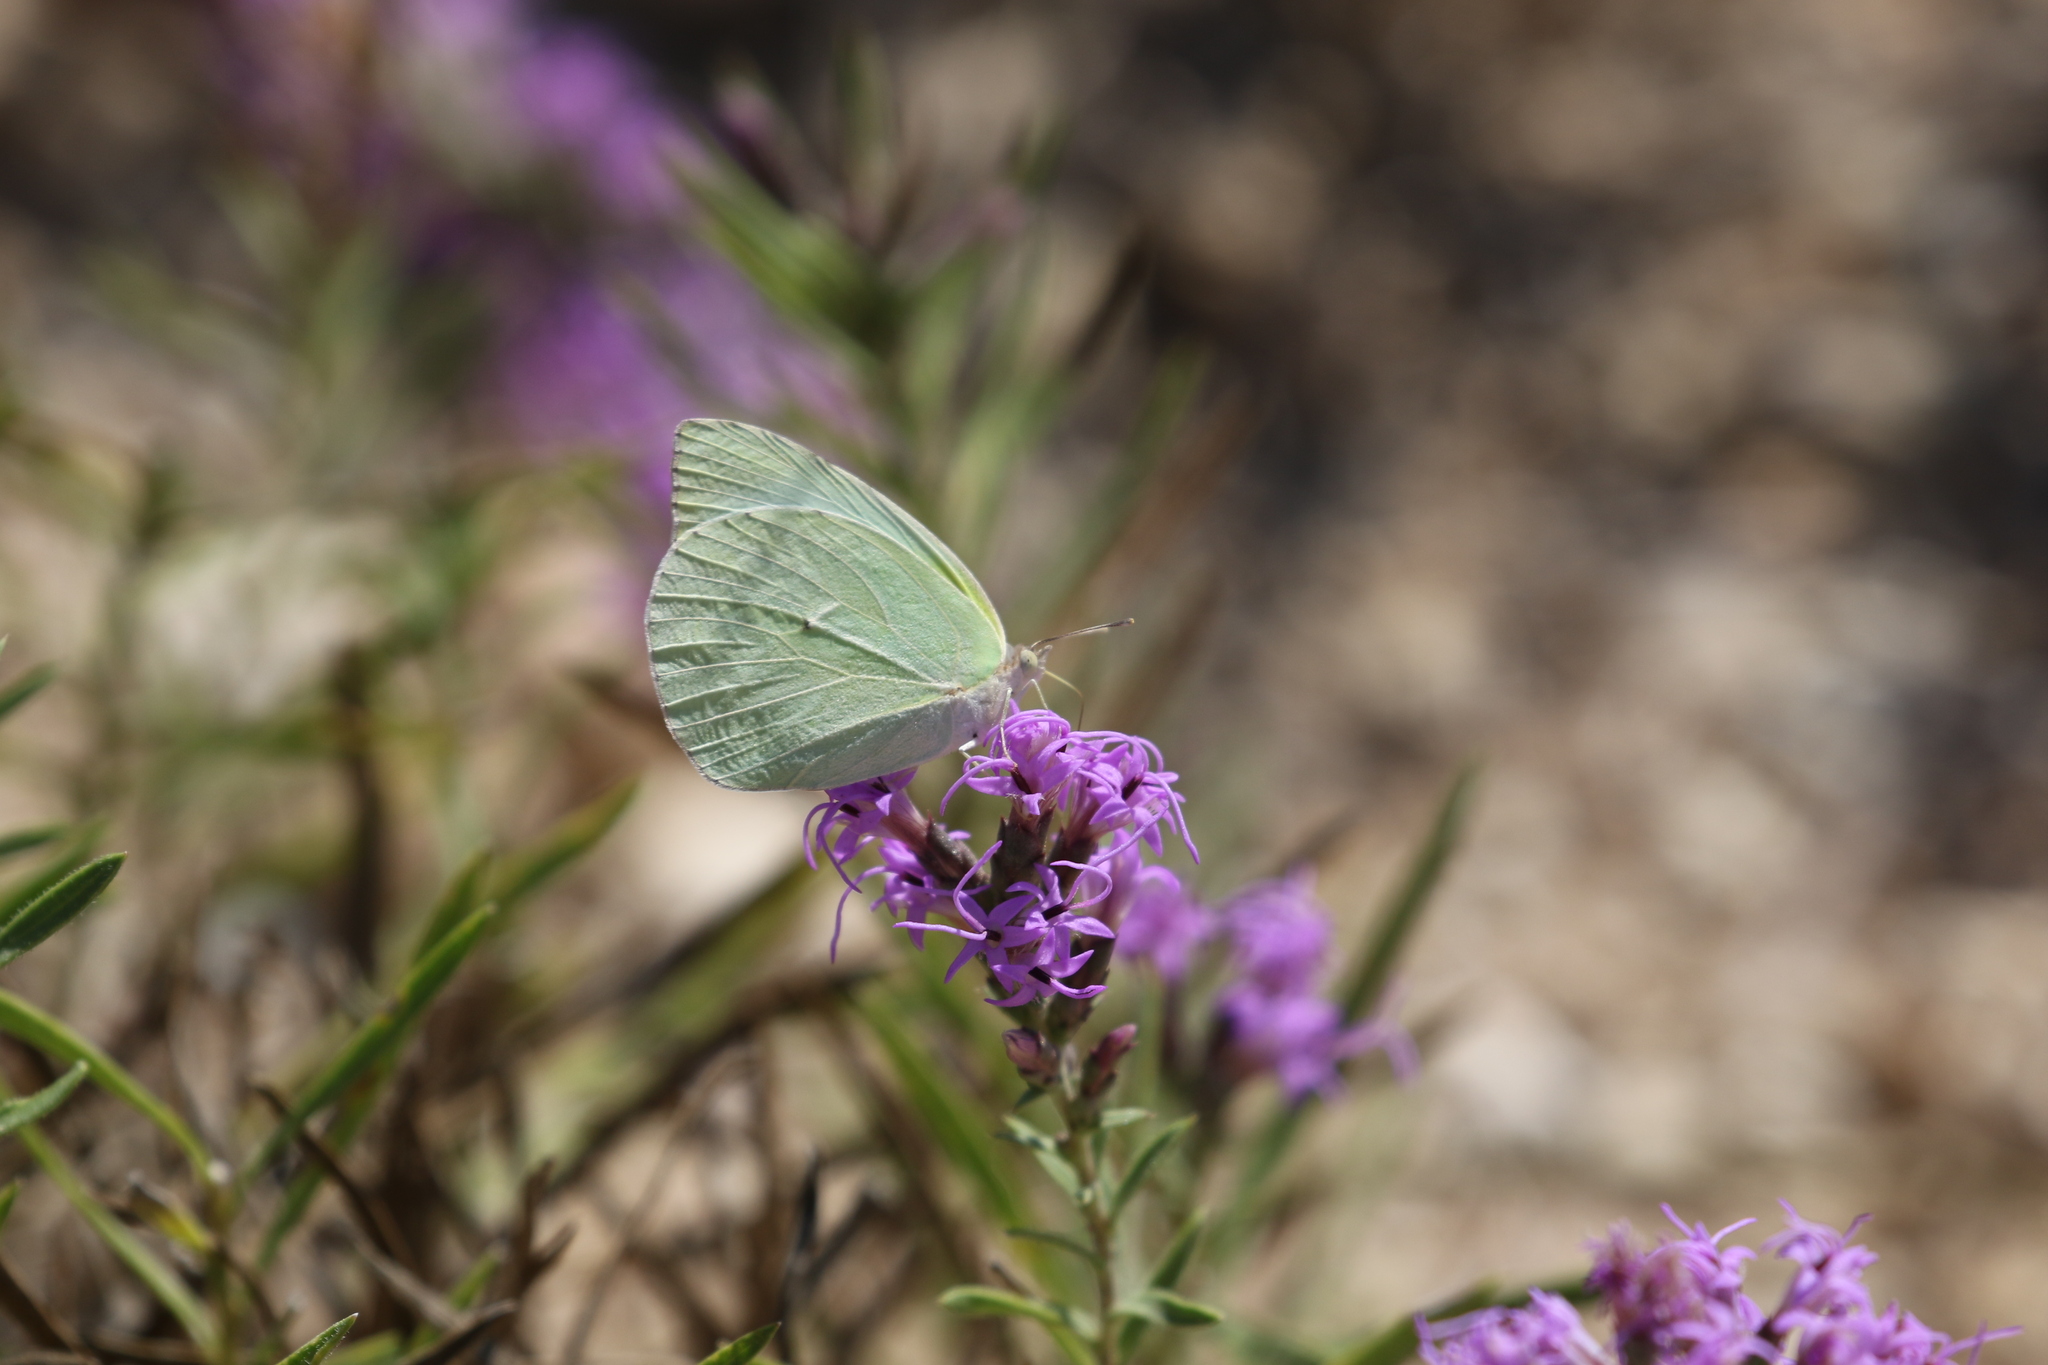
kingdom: Animalia
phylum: Arthropoda
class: Insecta
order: Lepidoptera
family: Pieridae
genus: Kricogonia
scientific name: Kricogonia lyside
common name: Guayacan sulphur,
